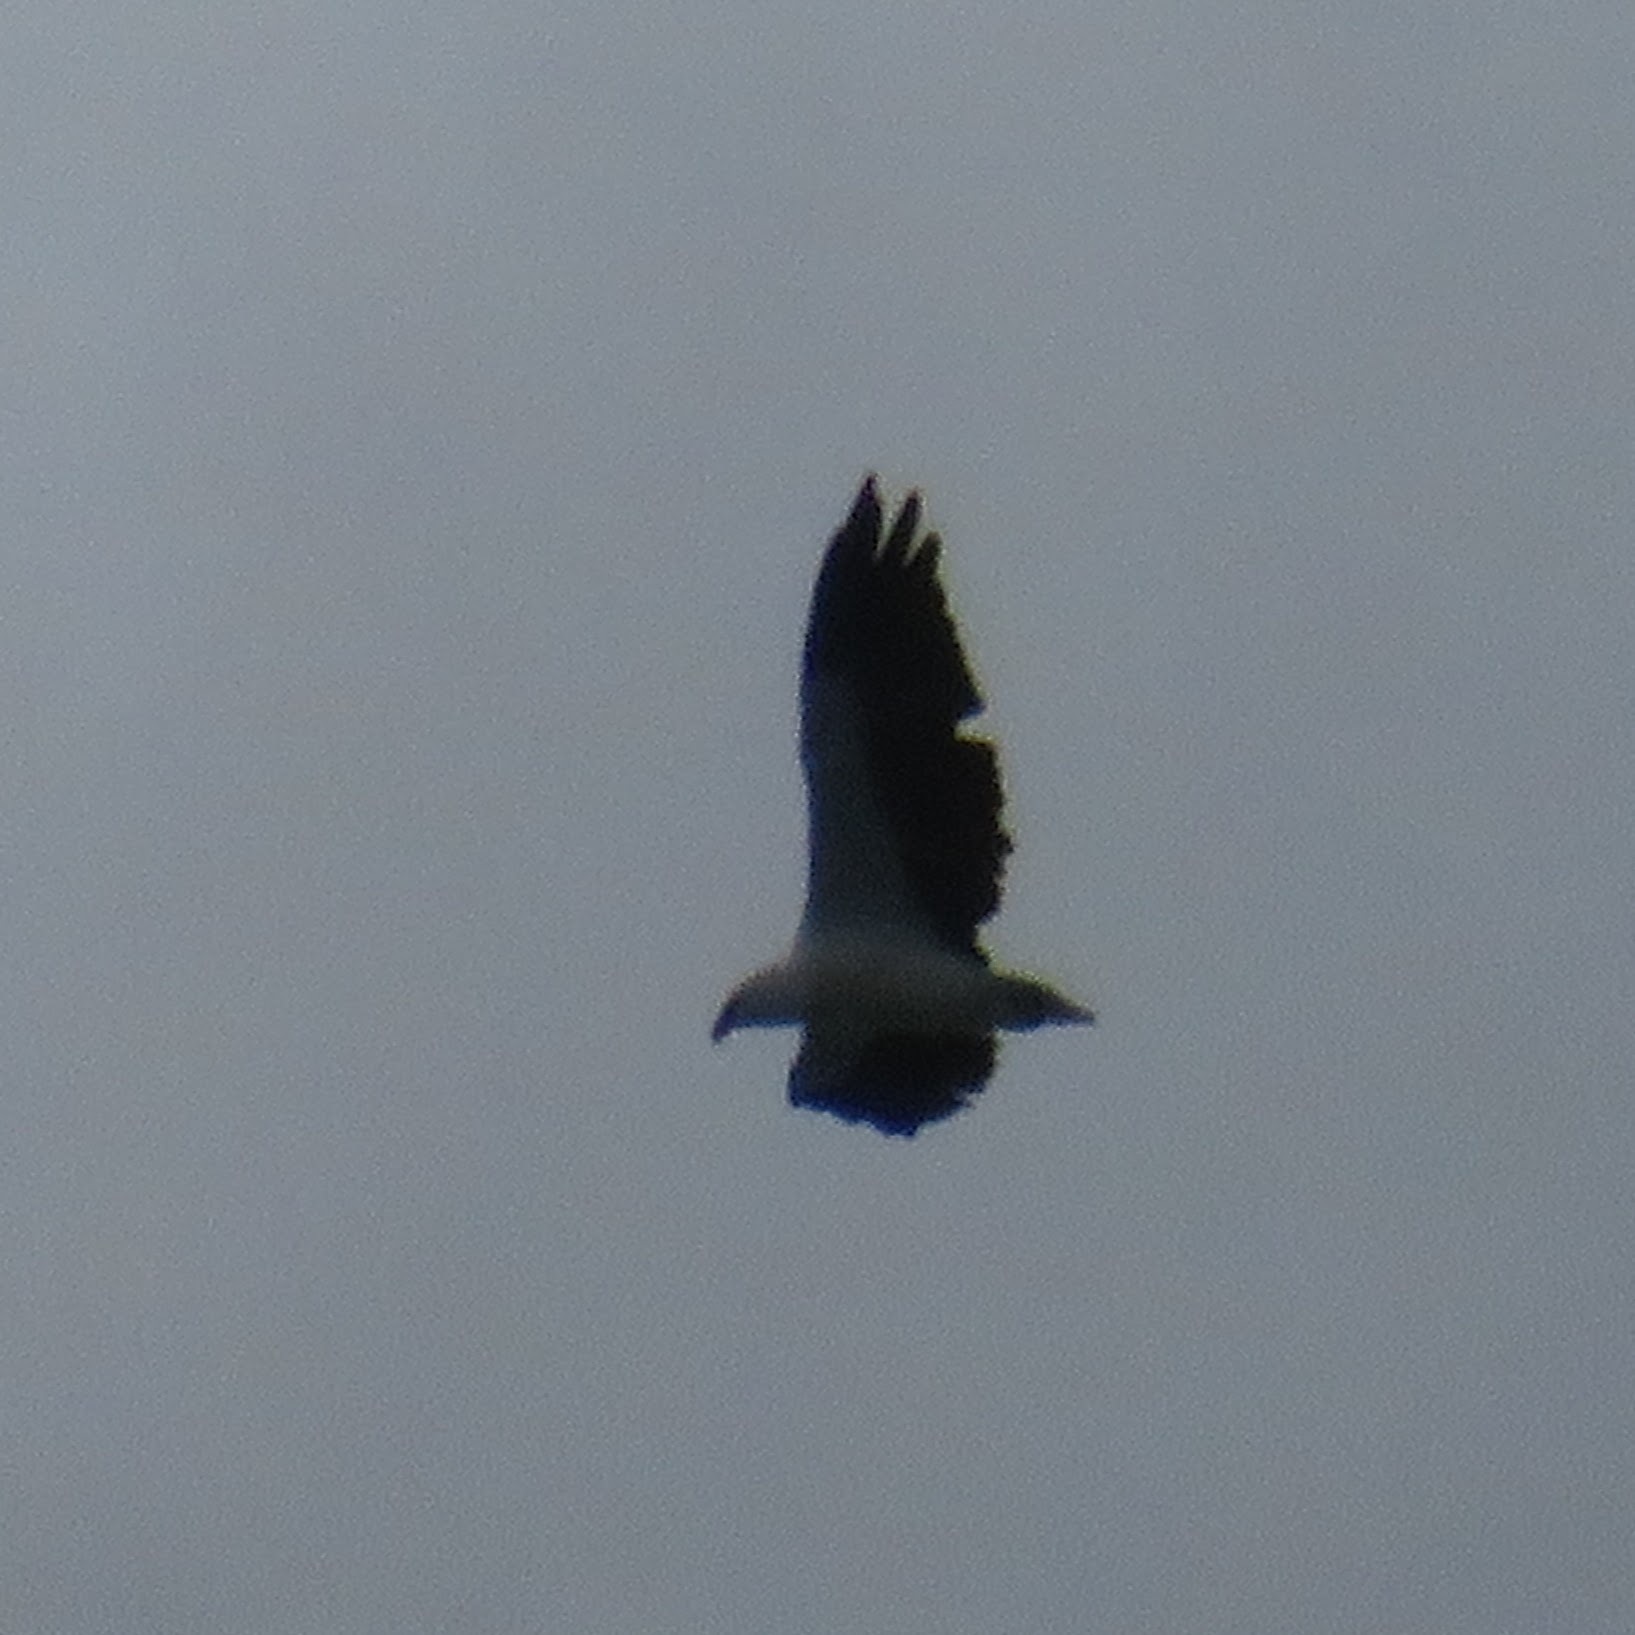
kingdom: Animalia
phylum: Chordata
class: Aves
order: Accipitriformes
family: Accipitridae
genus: Haliaeetus
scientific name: Haliaeetus leucogaster
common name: White-bellied sea eagle
